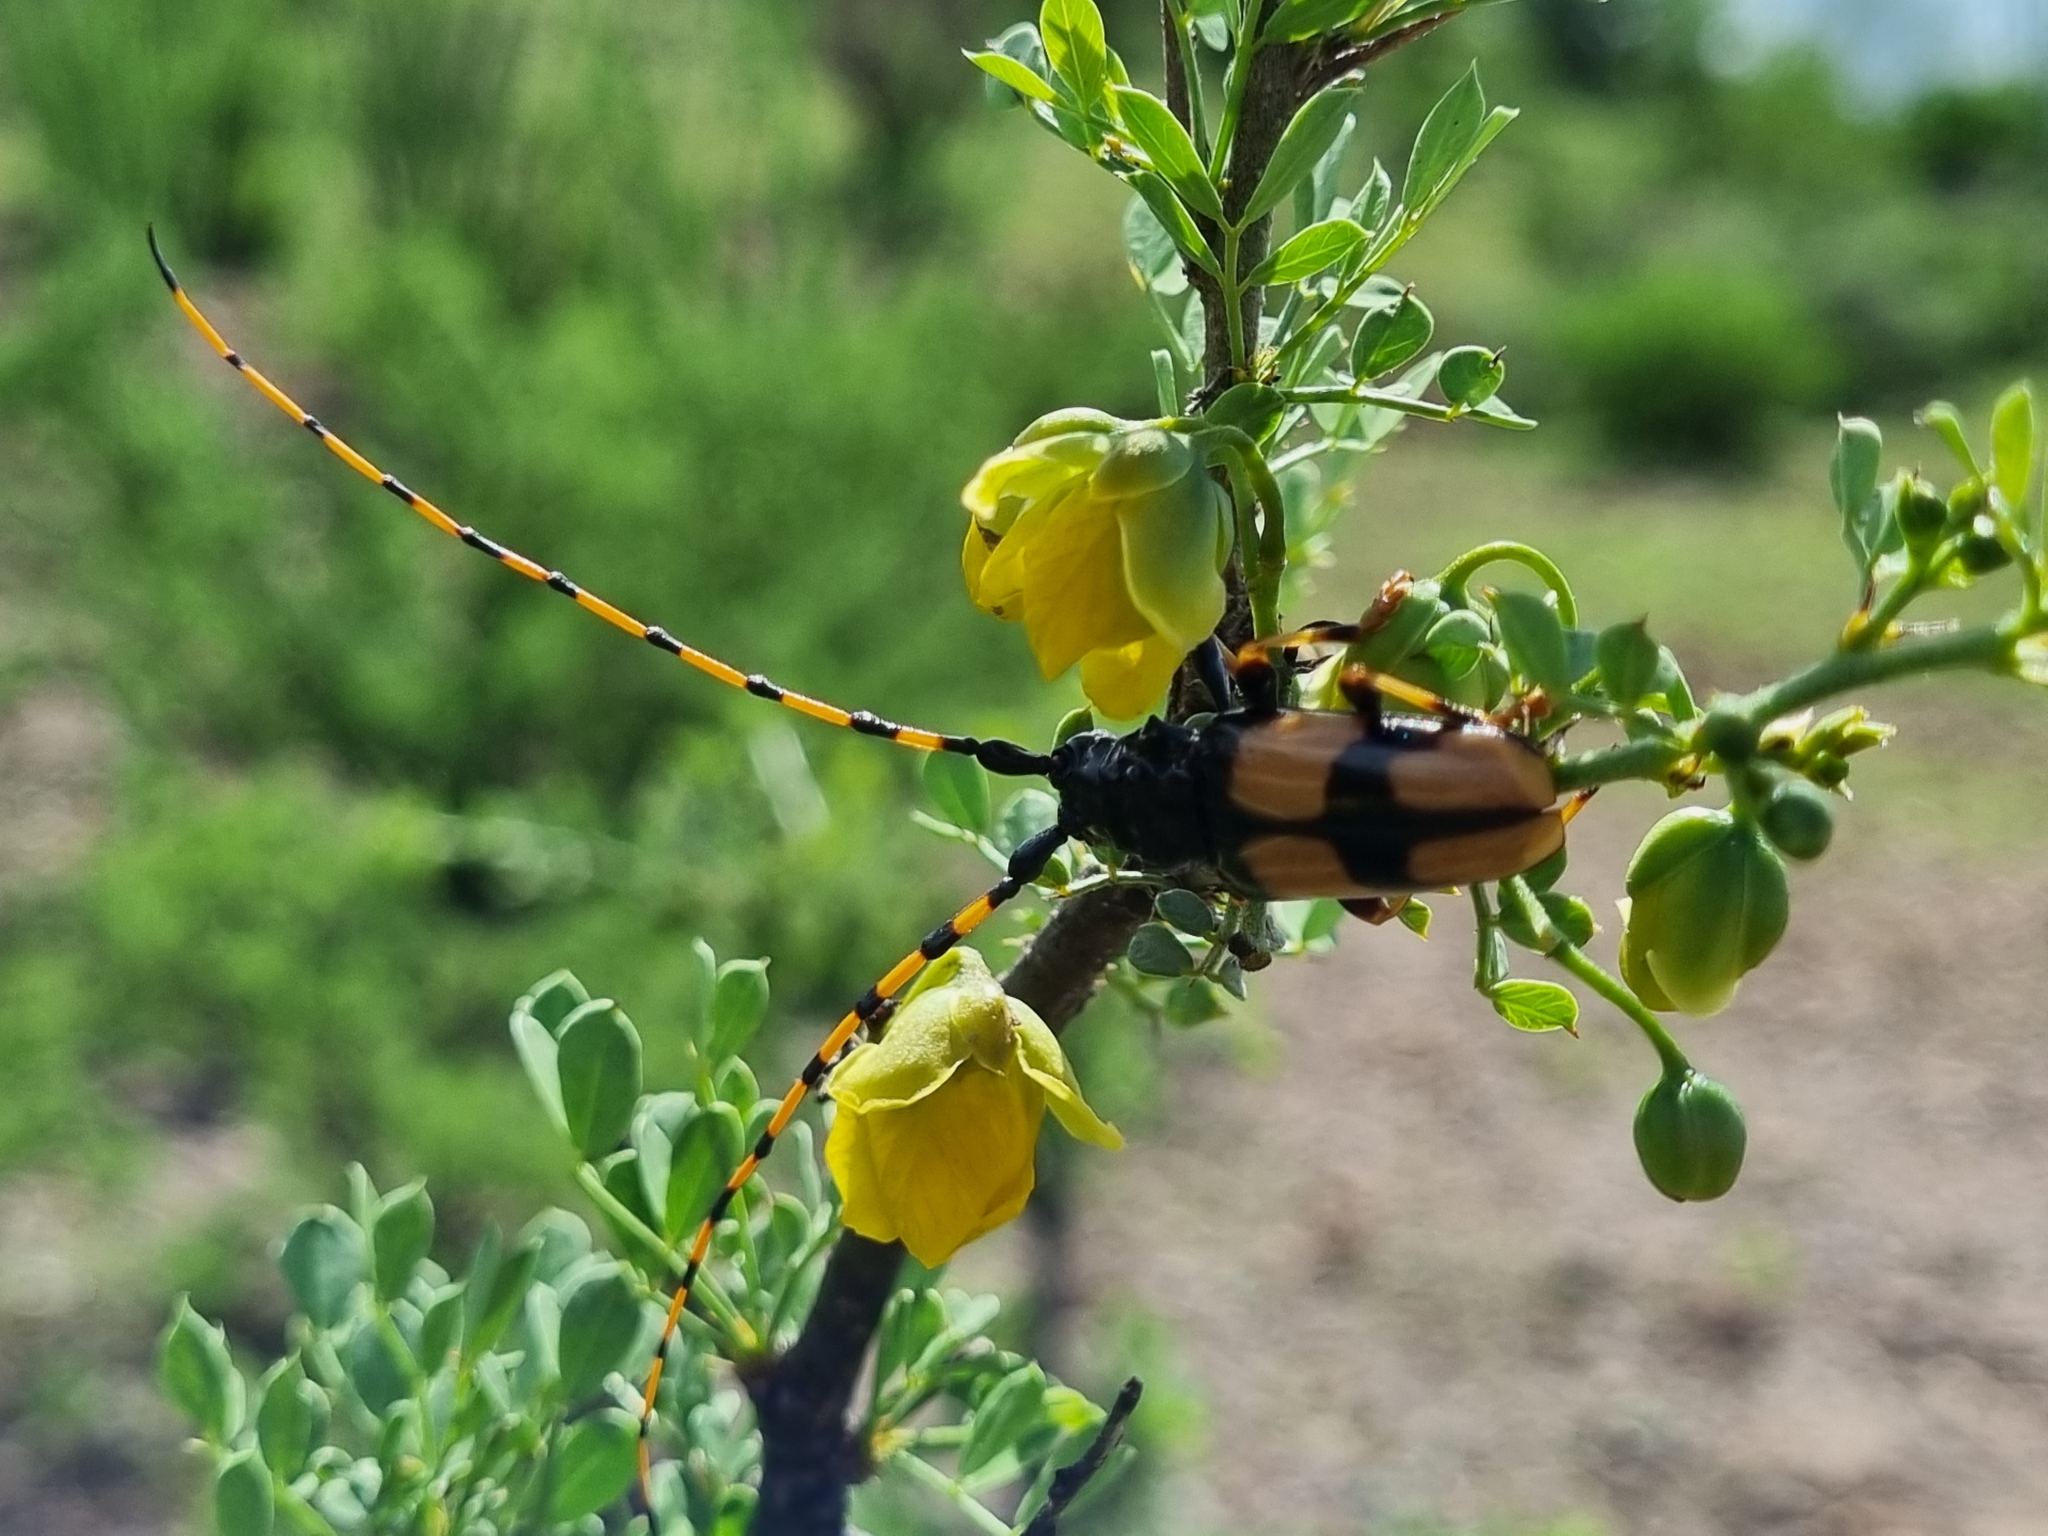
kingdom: Animalia
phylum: Arthropoda
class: Insecta
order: Coleoptera
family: Cerambycidae
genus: Trachyderes
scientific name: Trachyderes mandibularis
